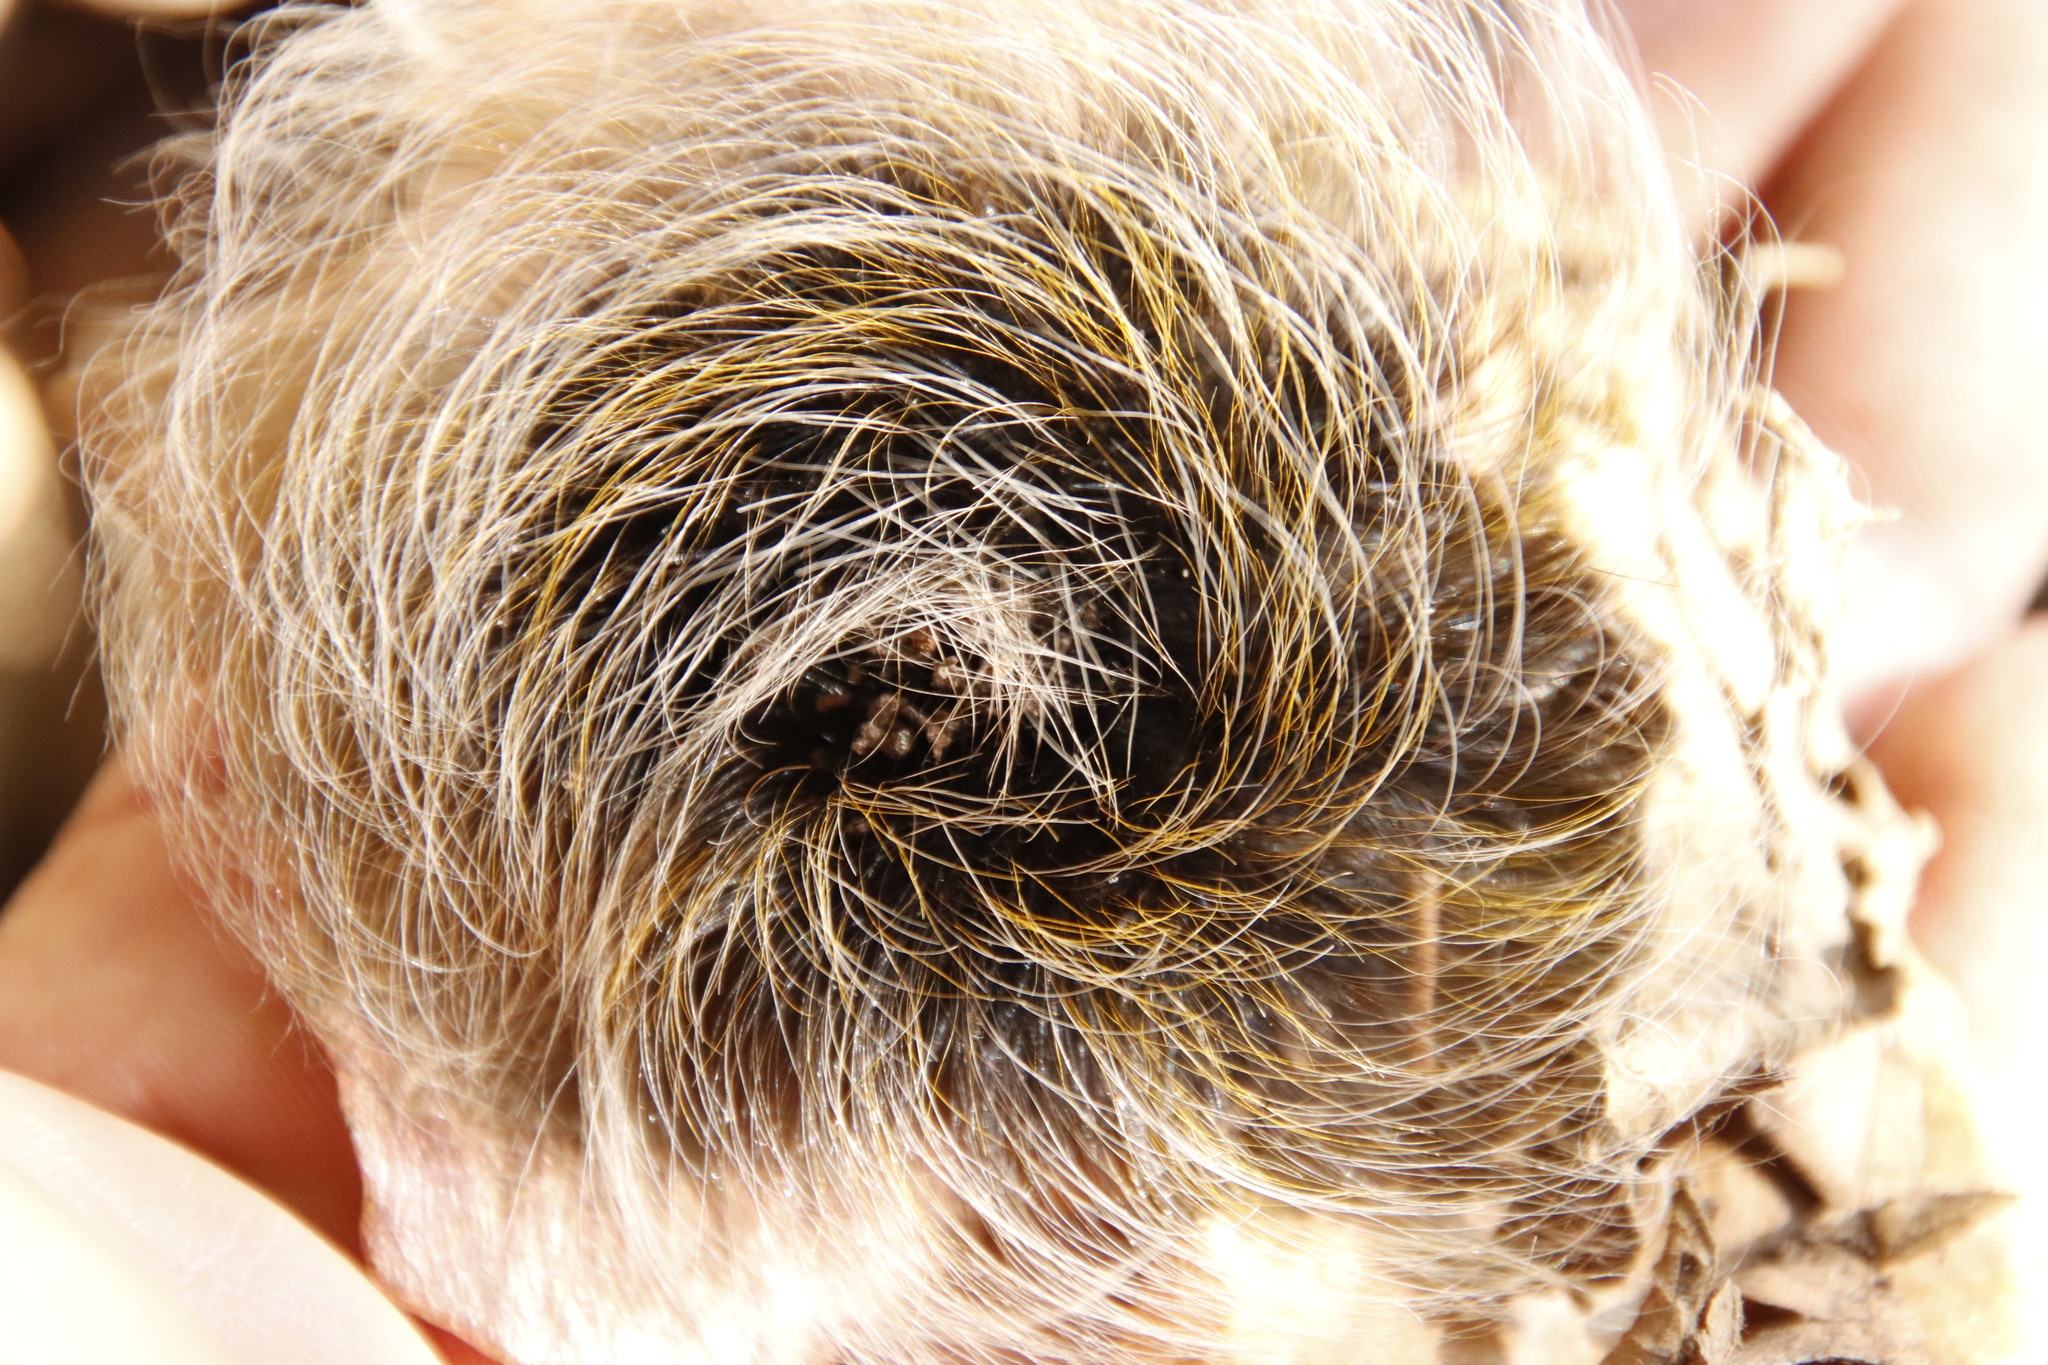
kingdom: Animalia
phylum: Arthropoda
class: Insecta
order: Lepidoptera
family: Eupterotidae
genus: Janomima
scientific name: Janomima mariana
